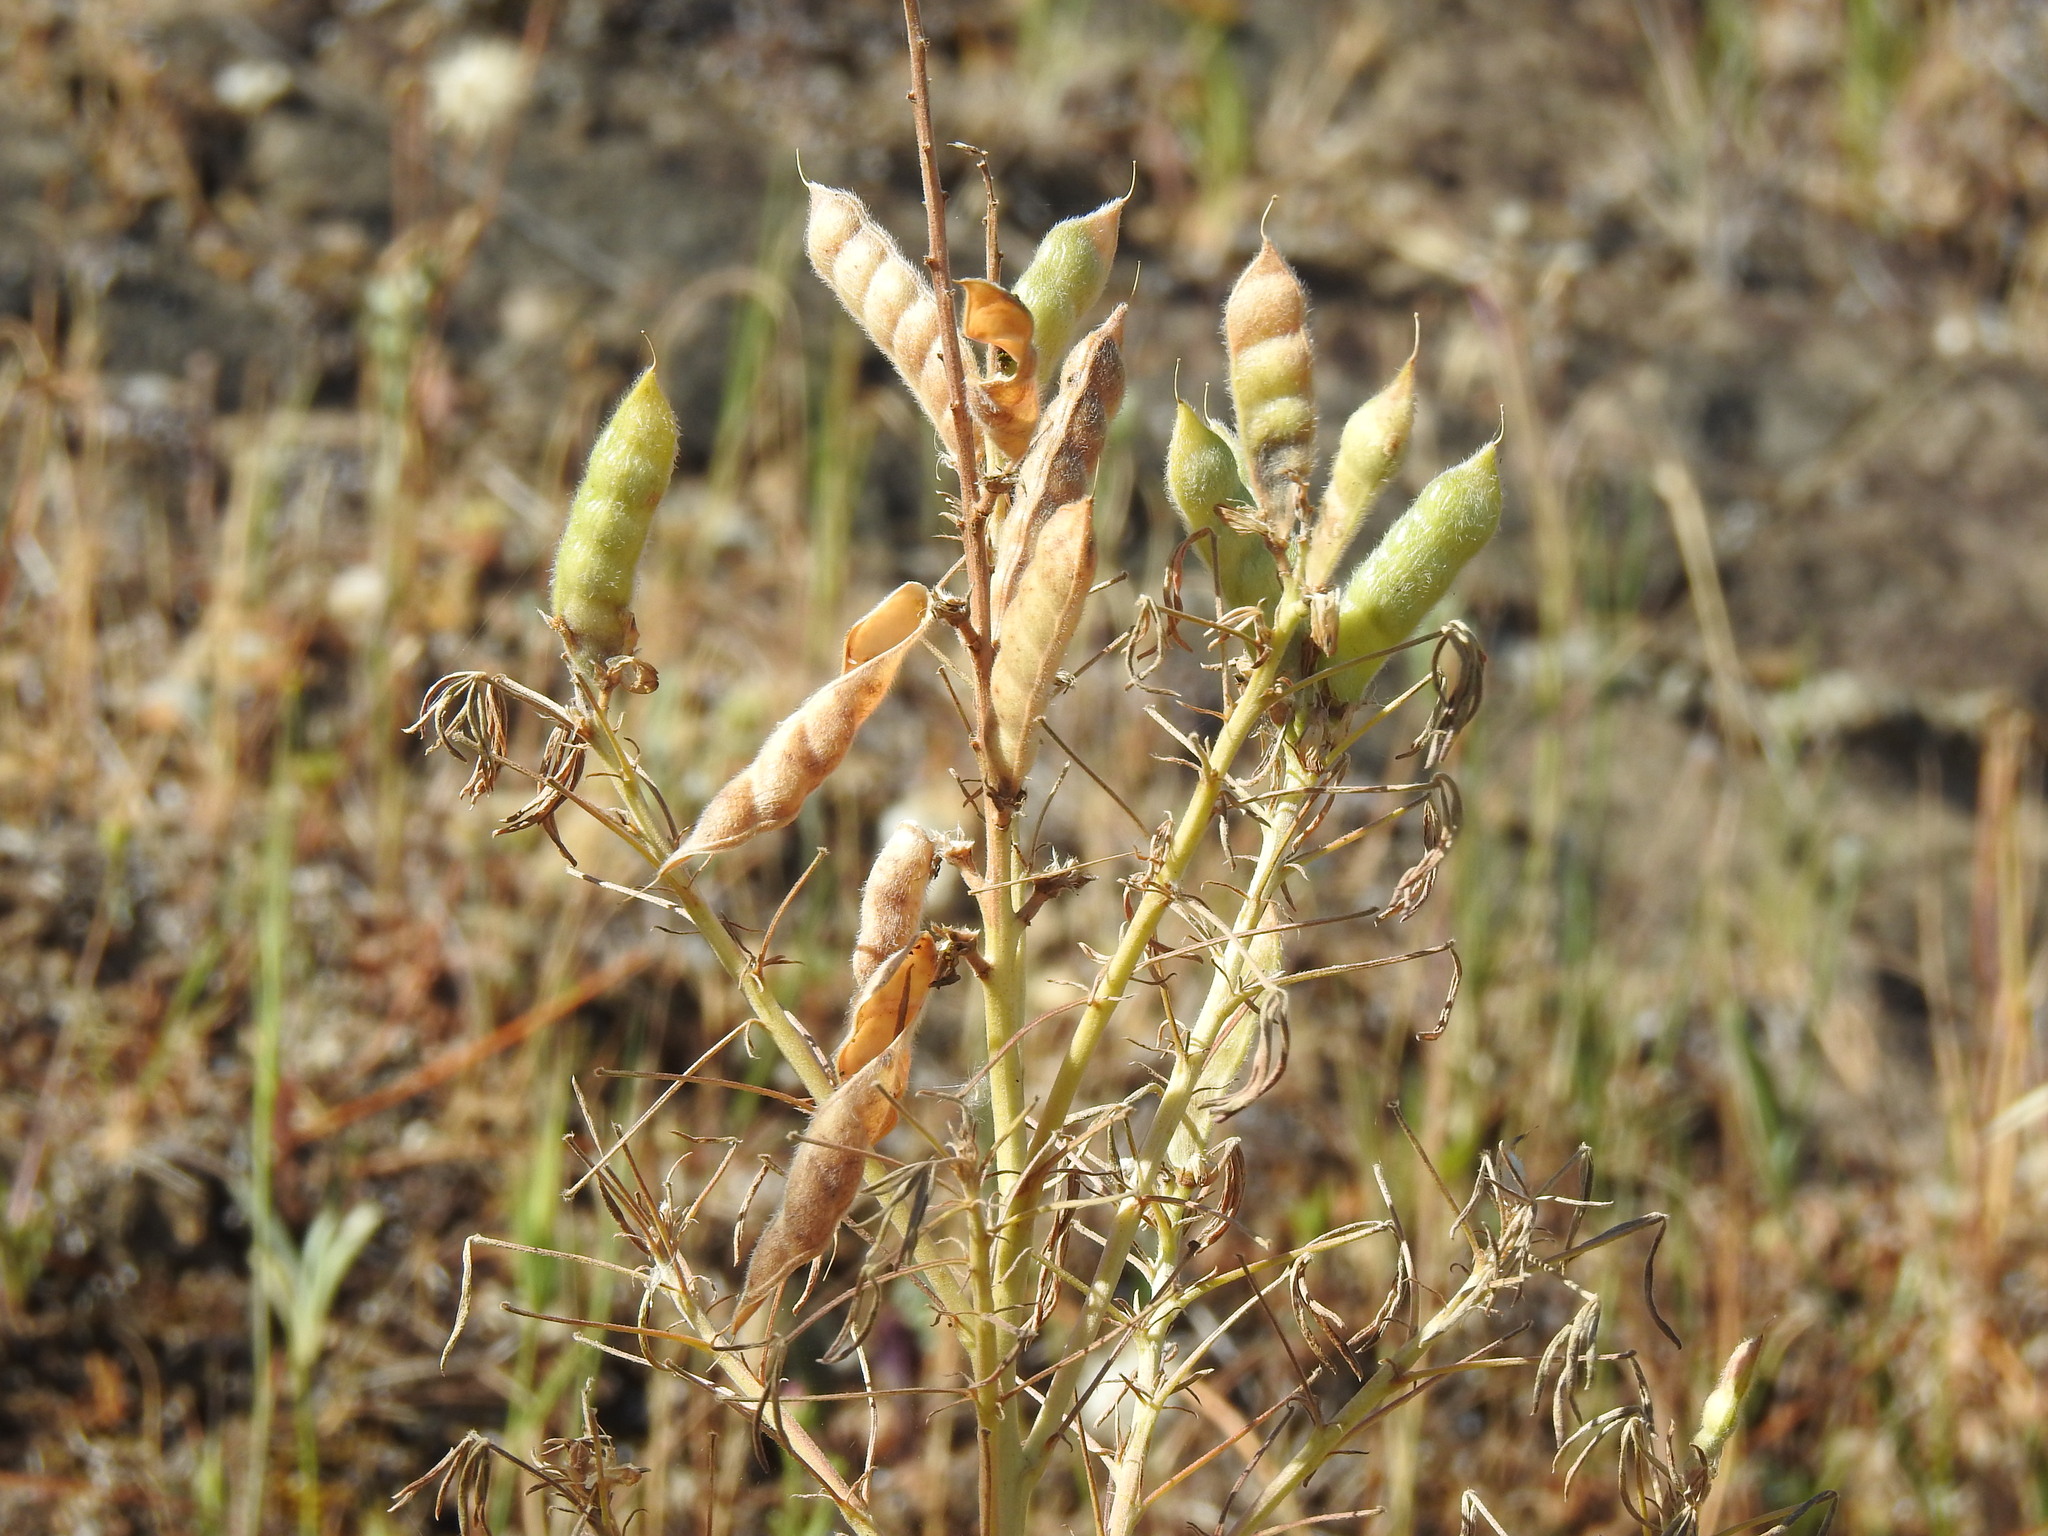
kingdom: Plantae
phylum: Tracheophyta
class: Magnoliopsida
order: Fabales
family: Fabaceae
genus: Lupinus
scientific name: Lupinus angustifolius
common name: Narrow-leaved lupin
